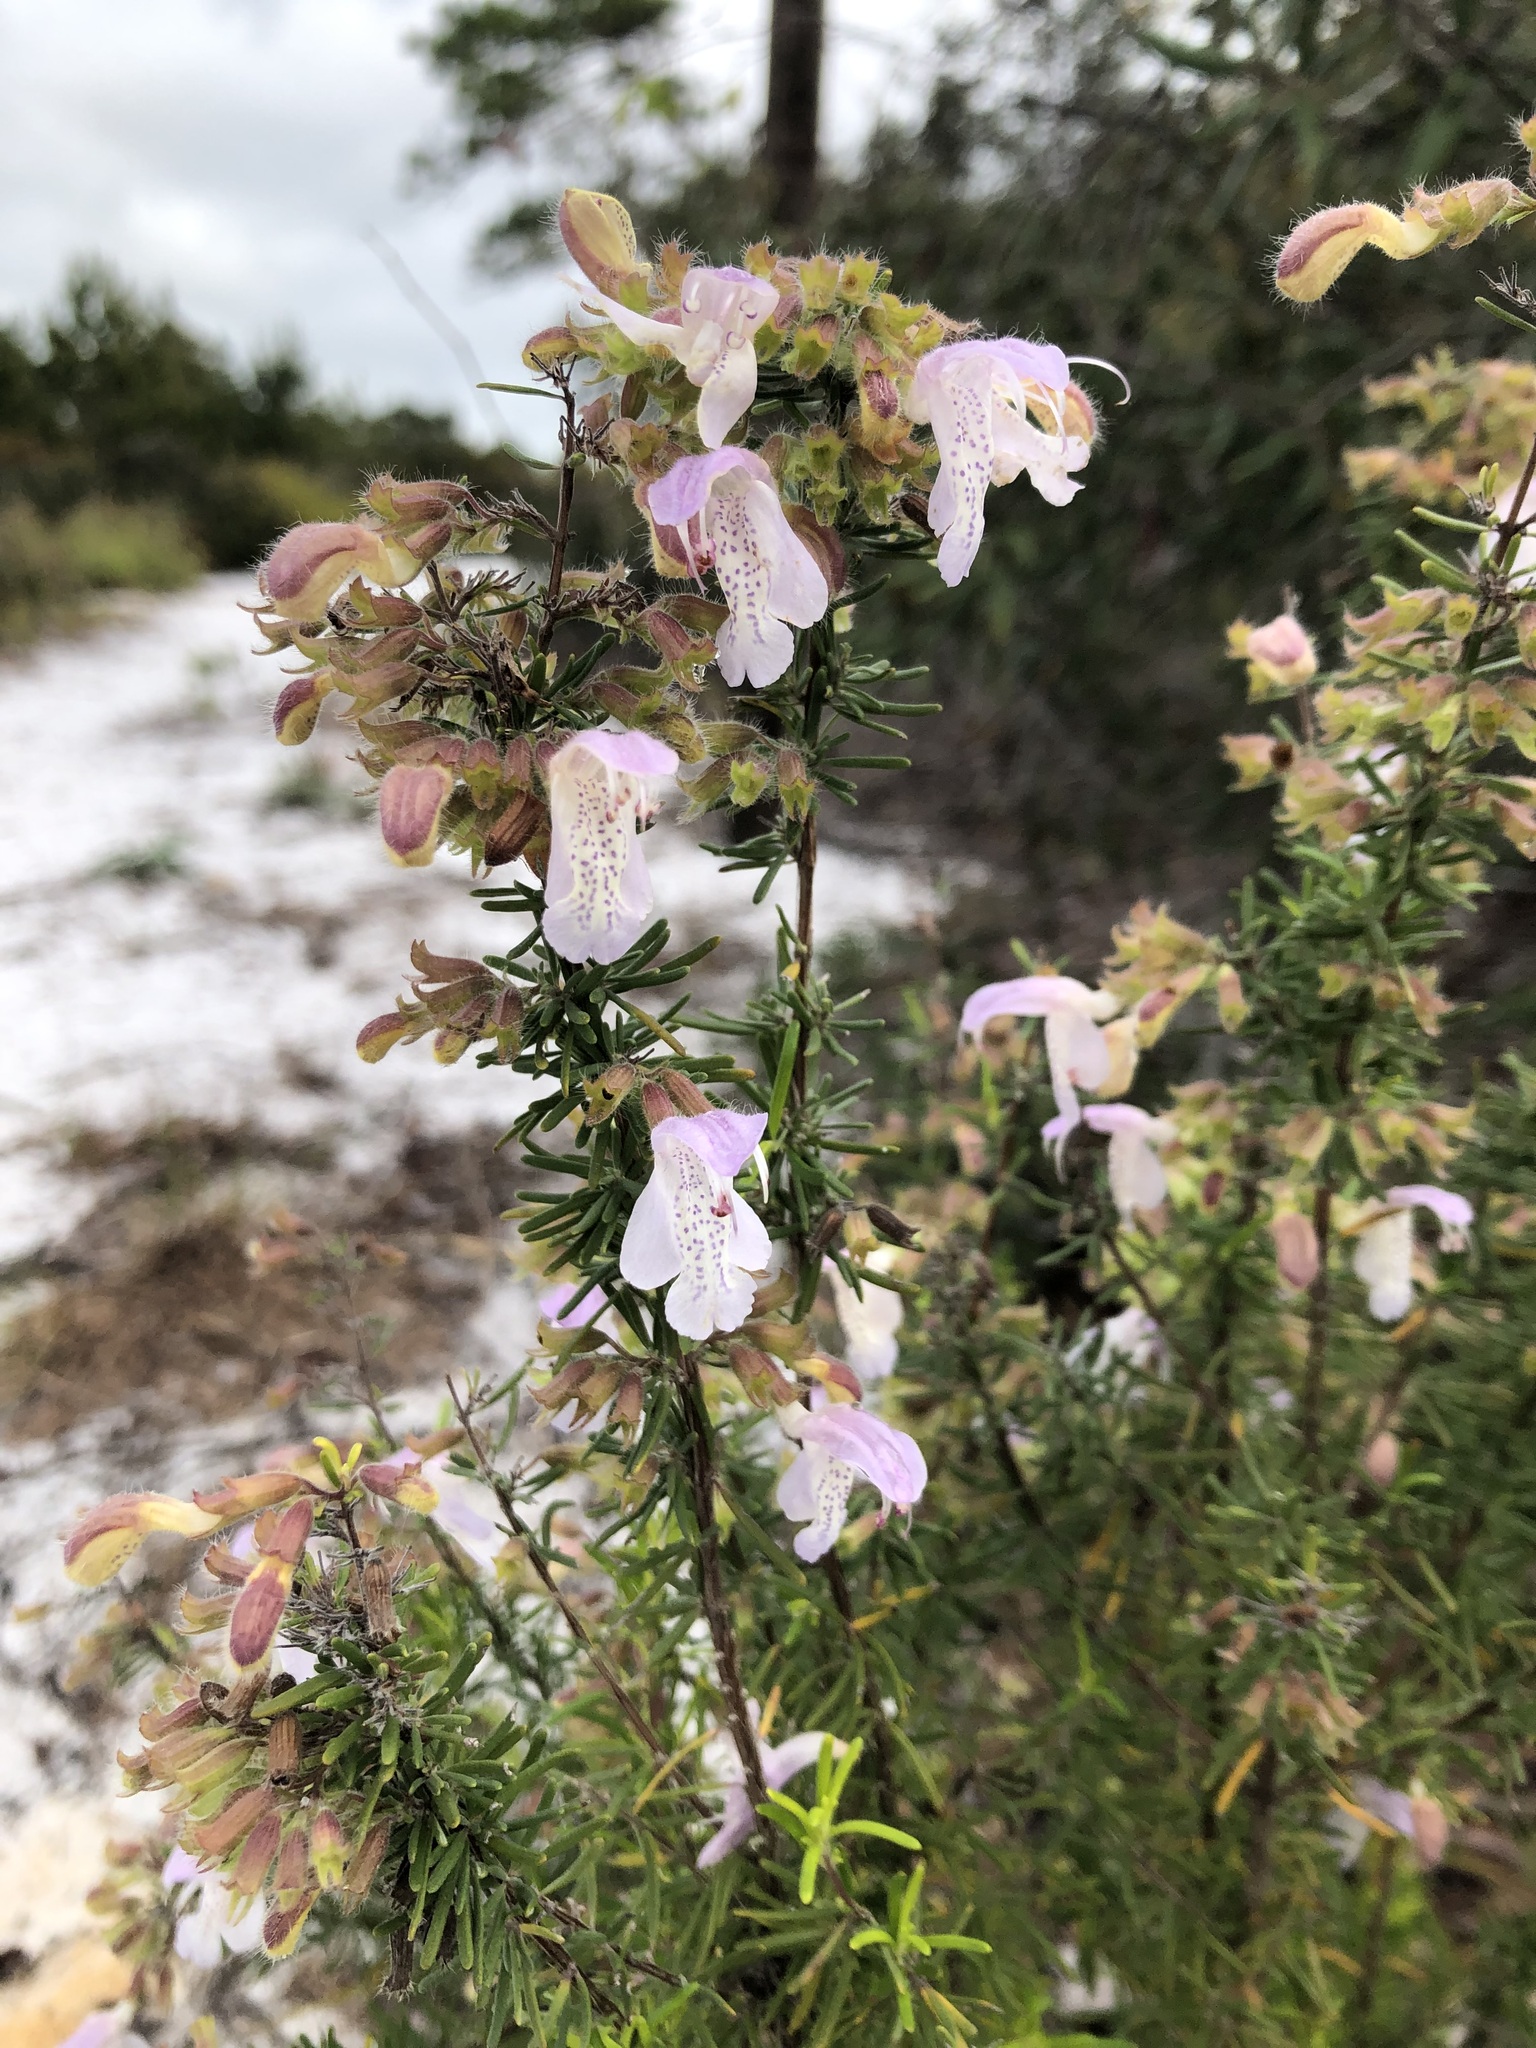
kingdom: Plantae
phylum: Tracheophyta
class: Magnoliopsida
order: Lamiales
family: Lamiaceae
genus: Conradina
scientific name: Conradina grandiflora
